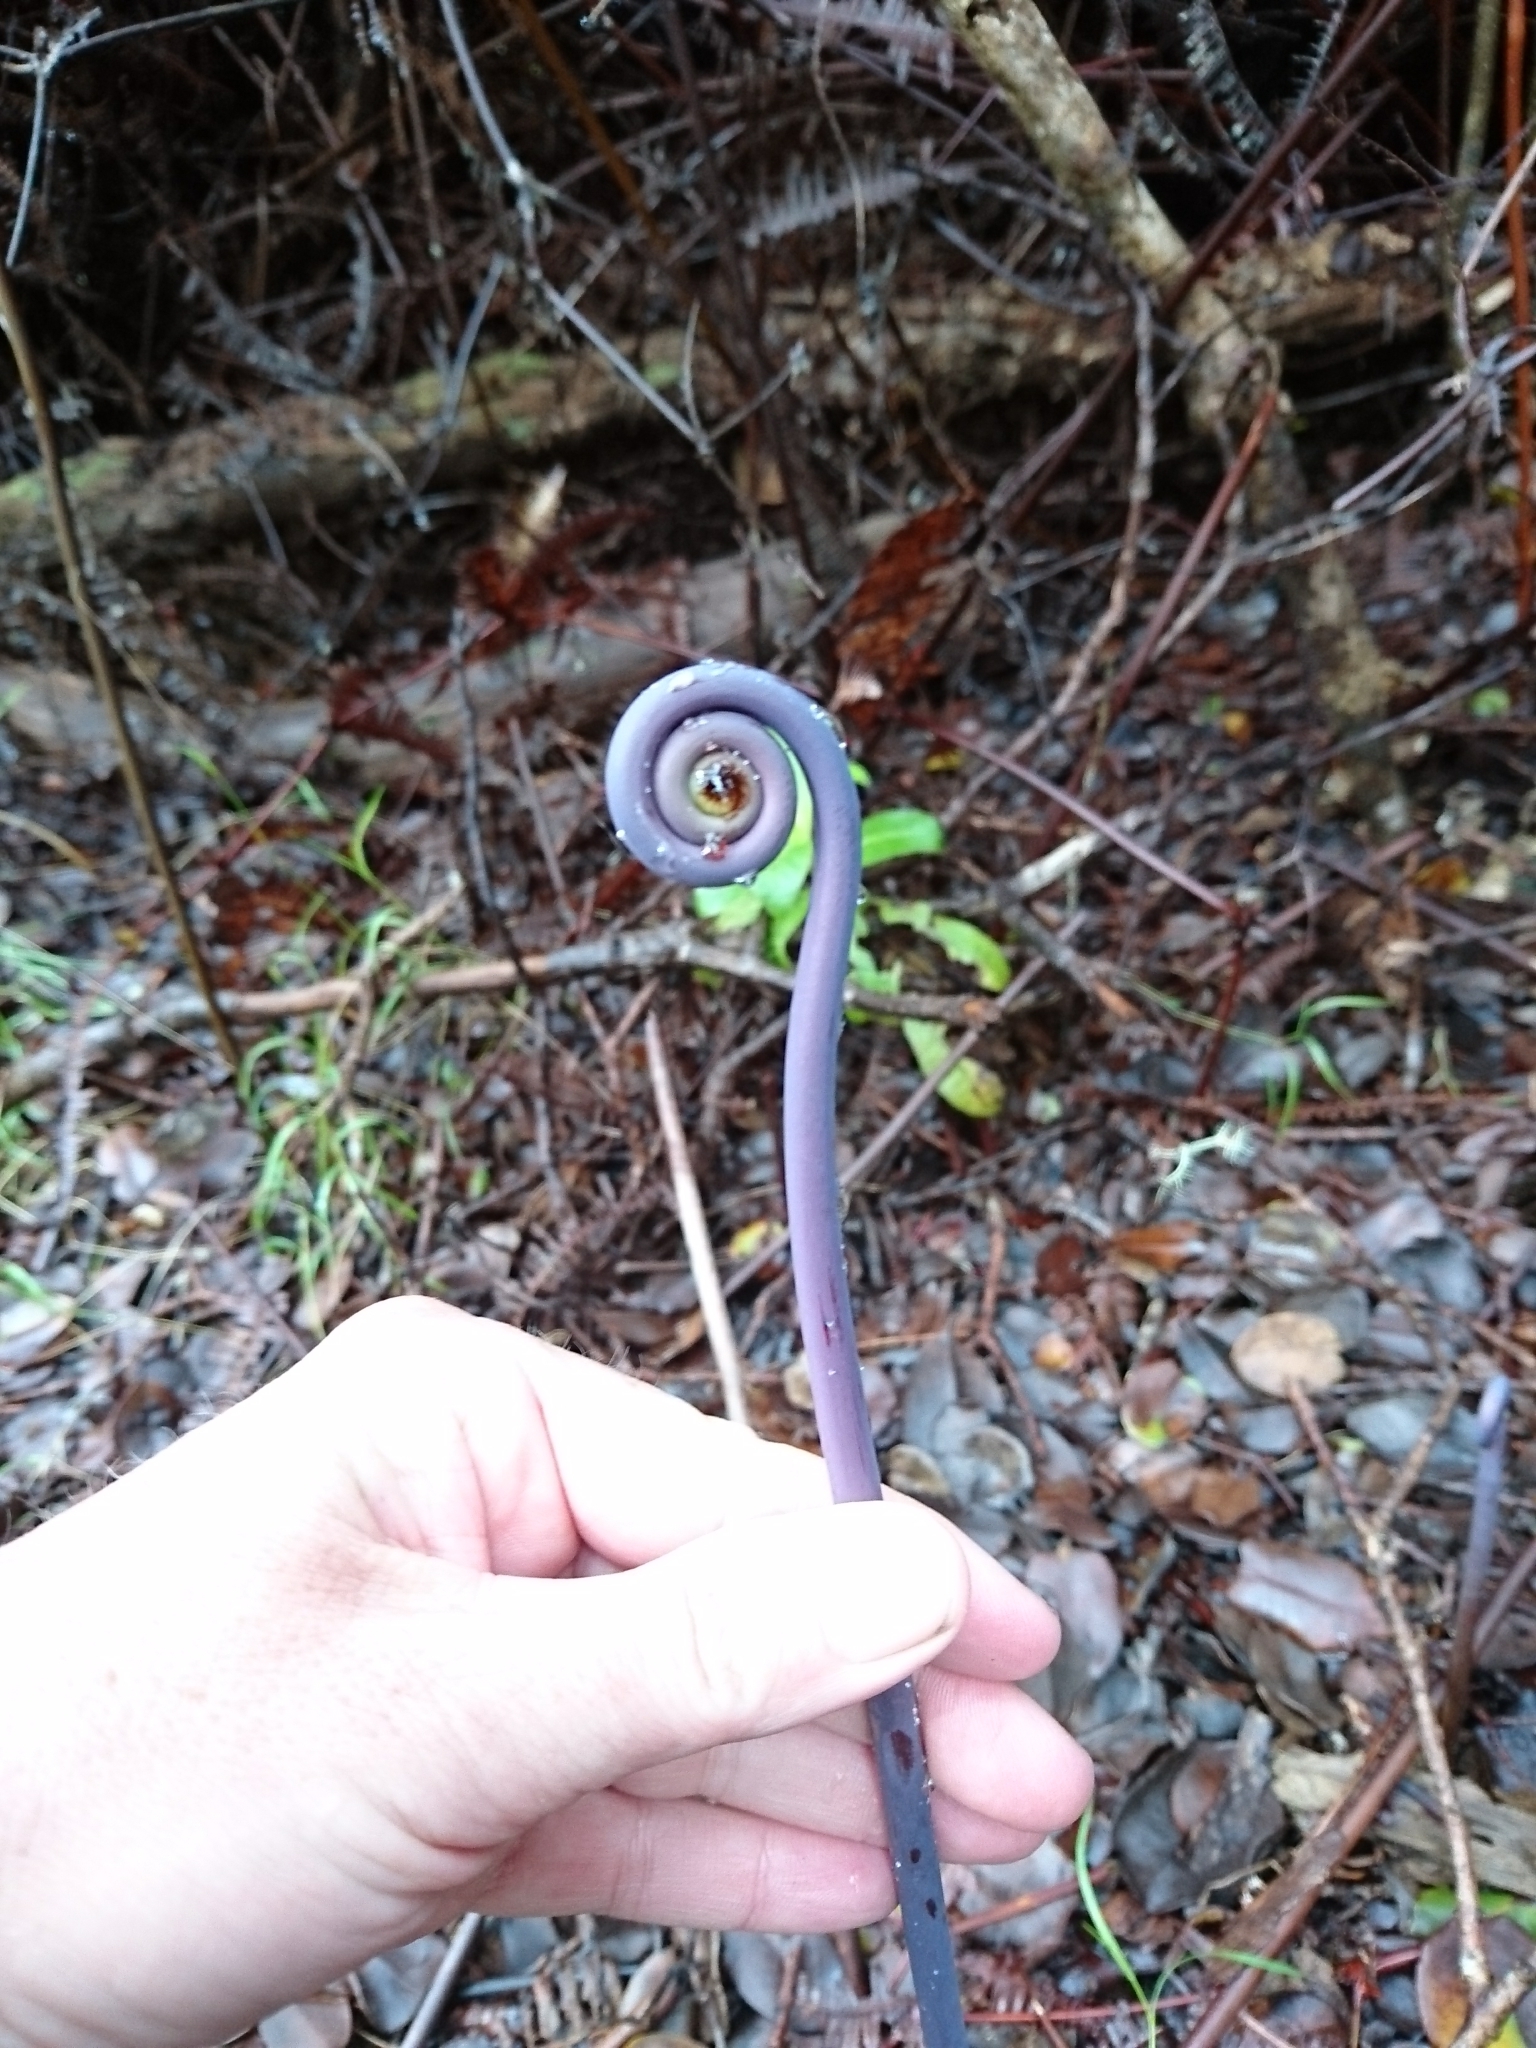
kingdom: Plantae
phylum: Tracheophyta
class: Polypodiopsida
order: Gleicheniales
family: Gleicheniaceae
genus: Dicranopteris
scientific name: Dicranopteris linearis
